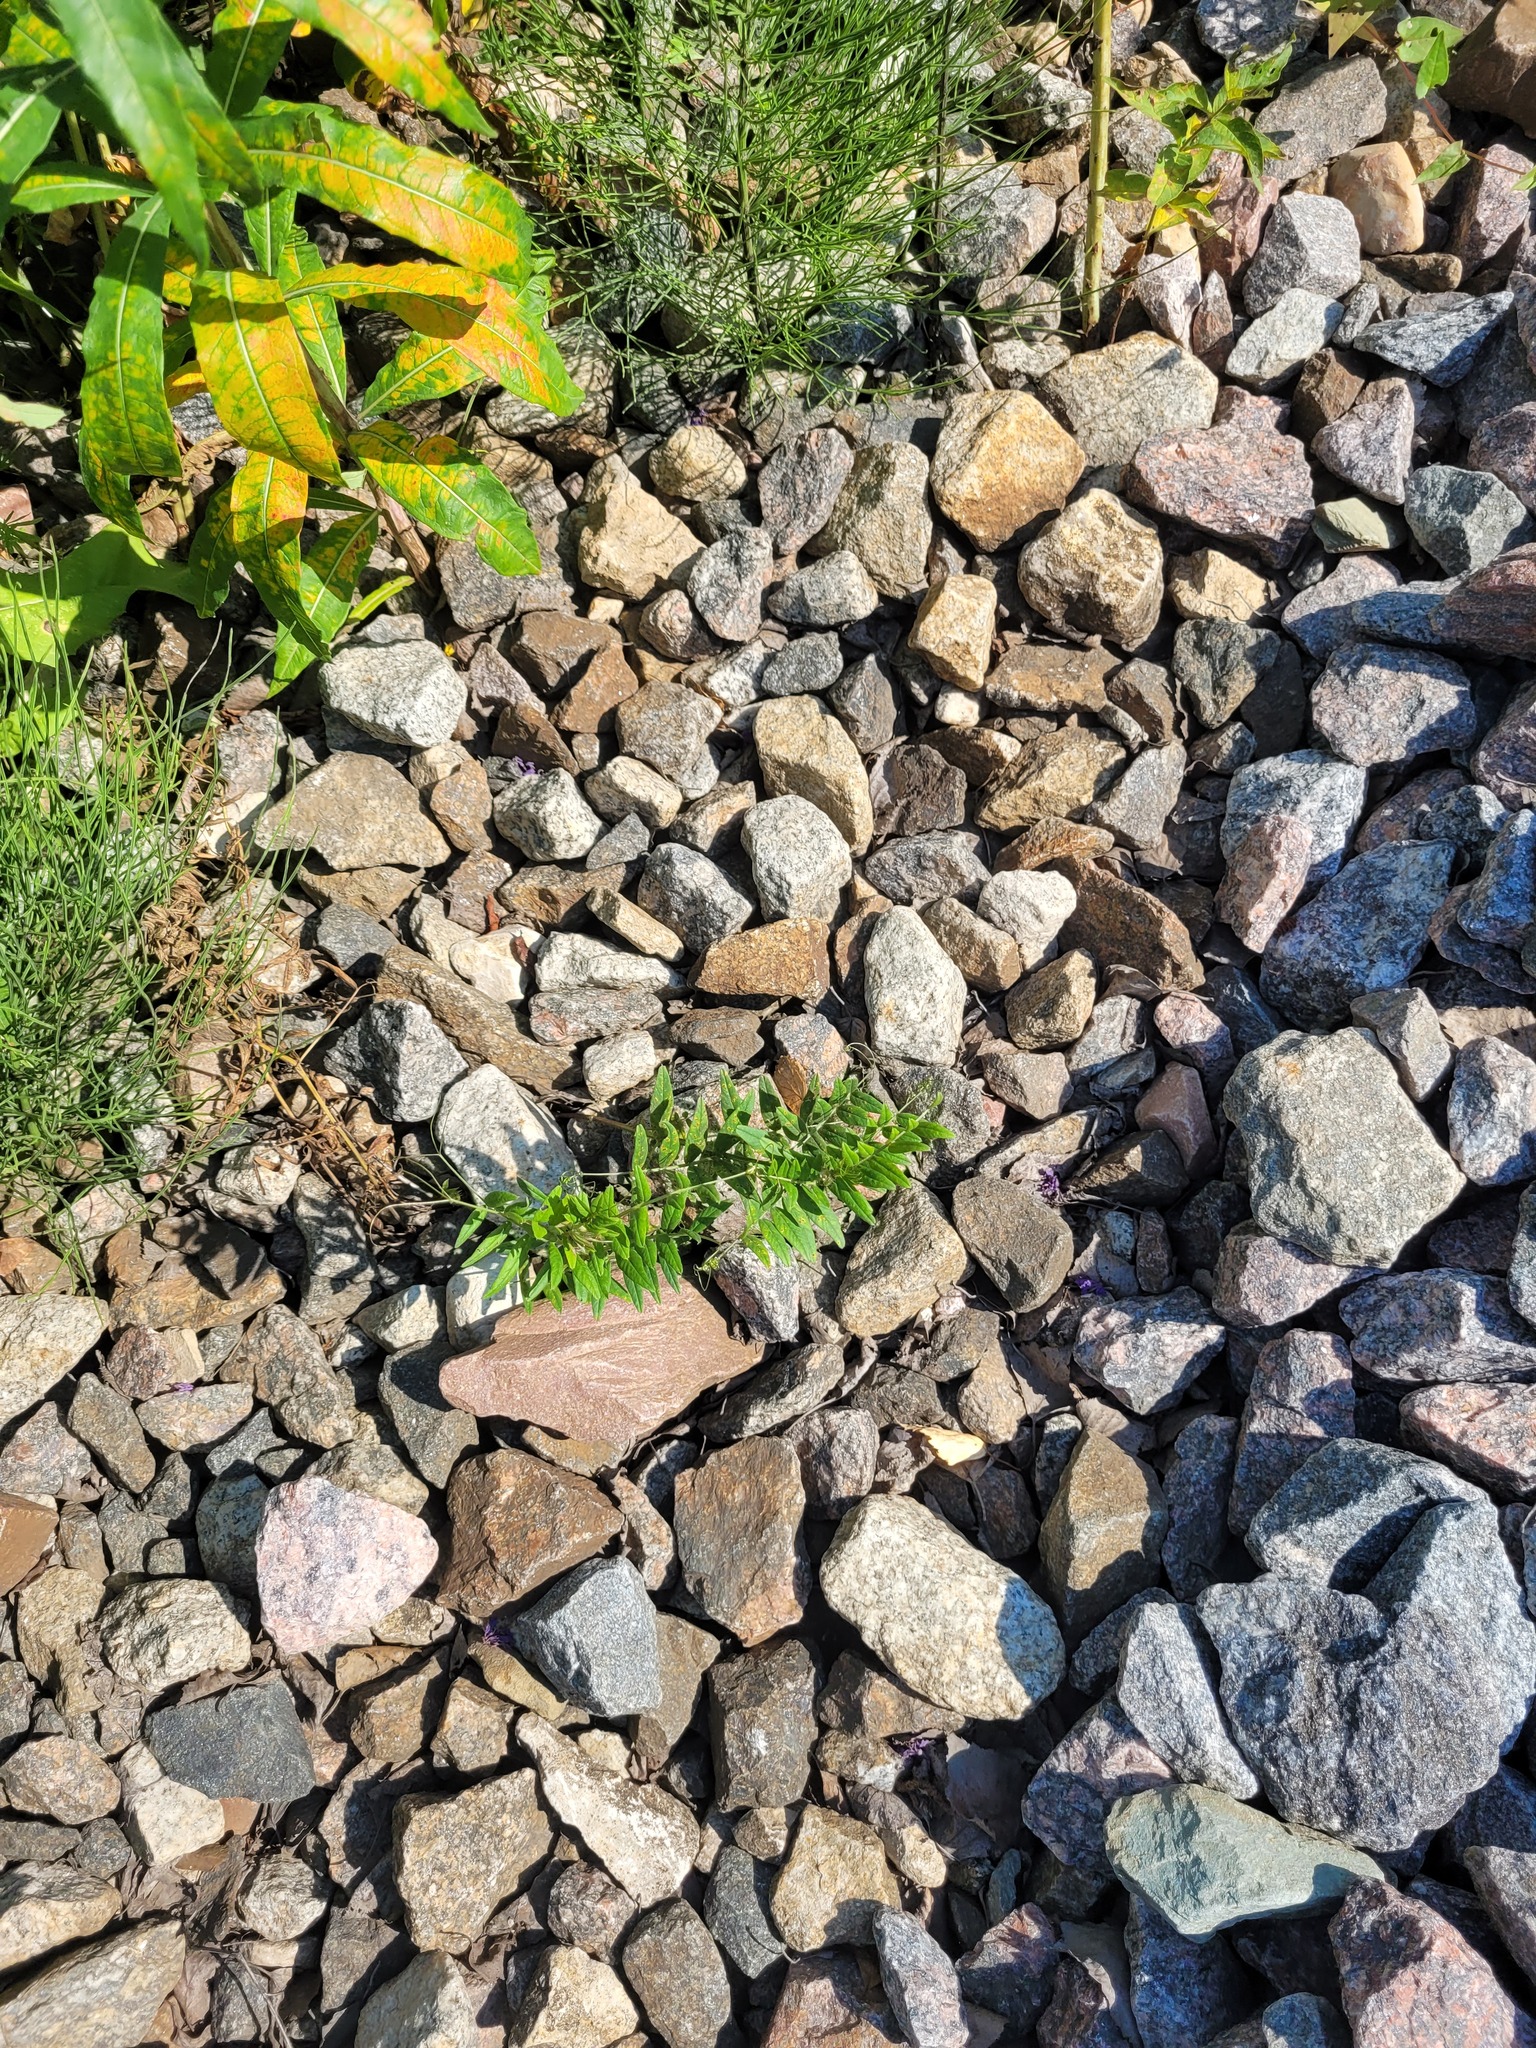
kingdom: Plantae
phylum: Tracheophyta
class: Magnoliopsida
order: Fabales
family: Fabaceae
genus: Vicia
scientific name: Vicia sepium
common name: Bush vetch
